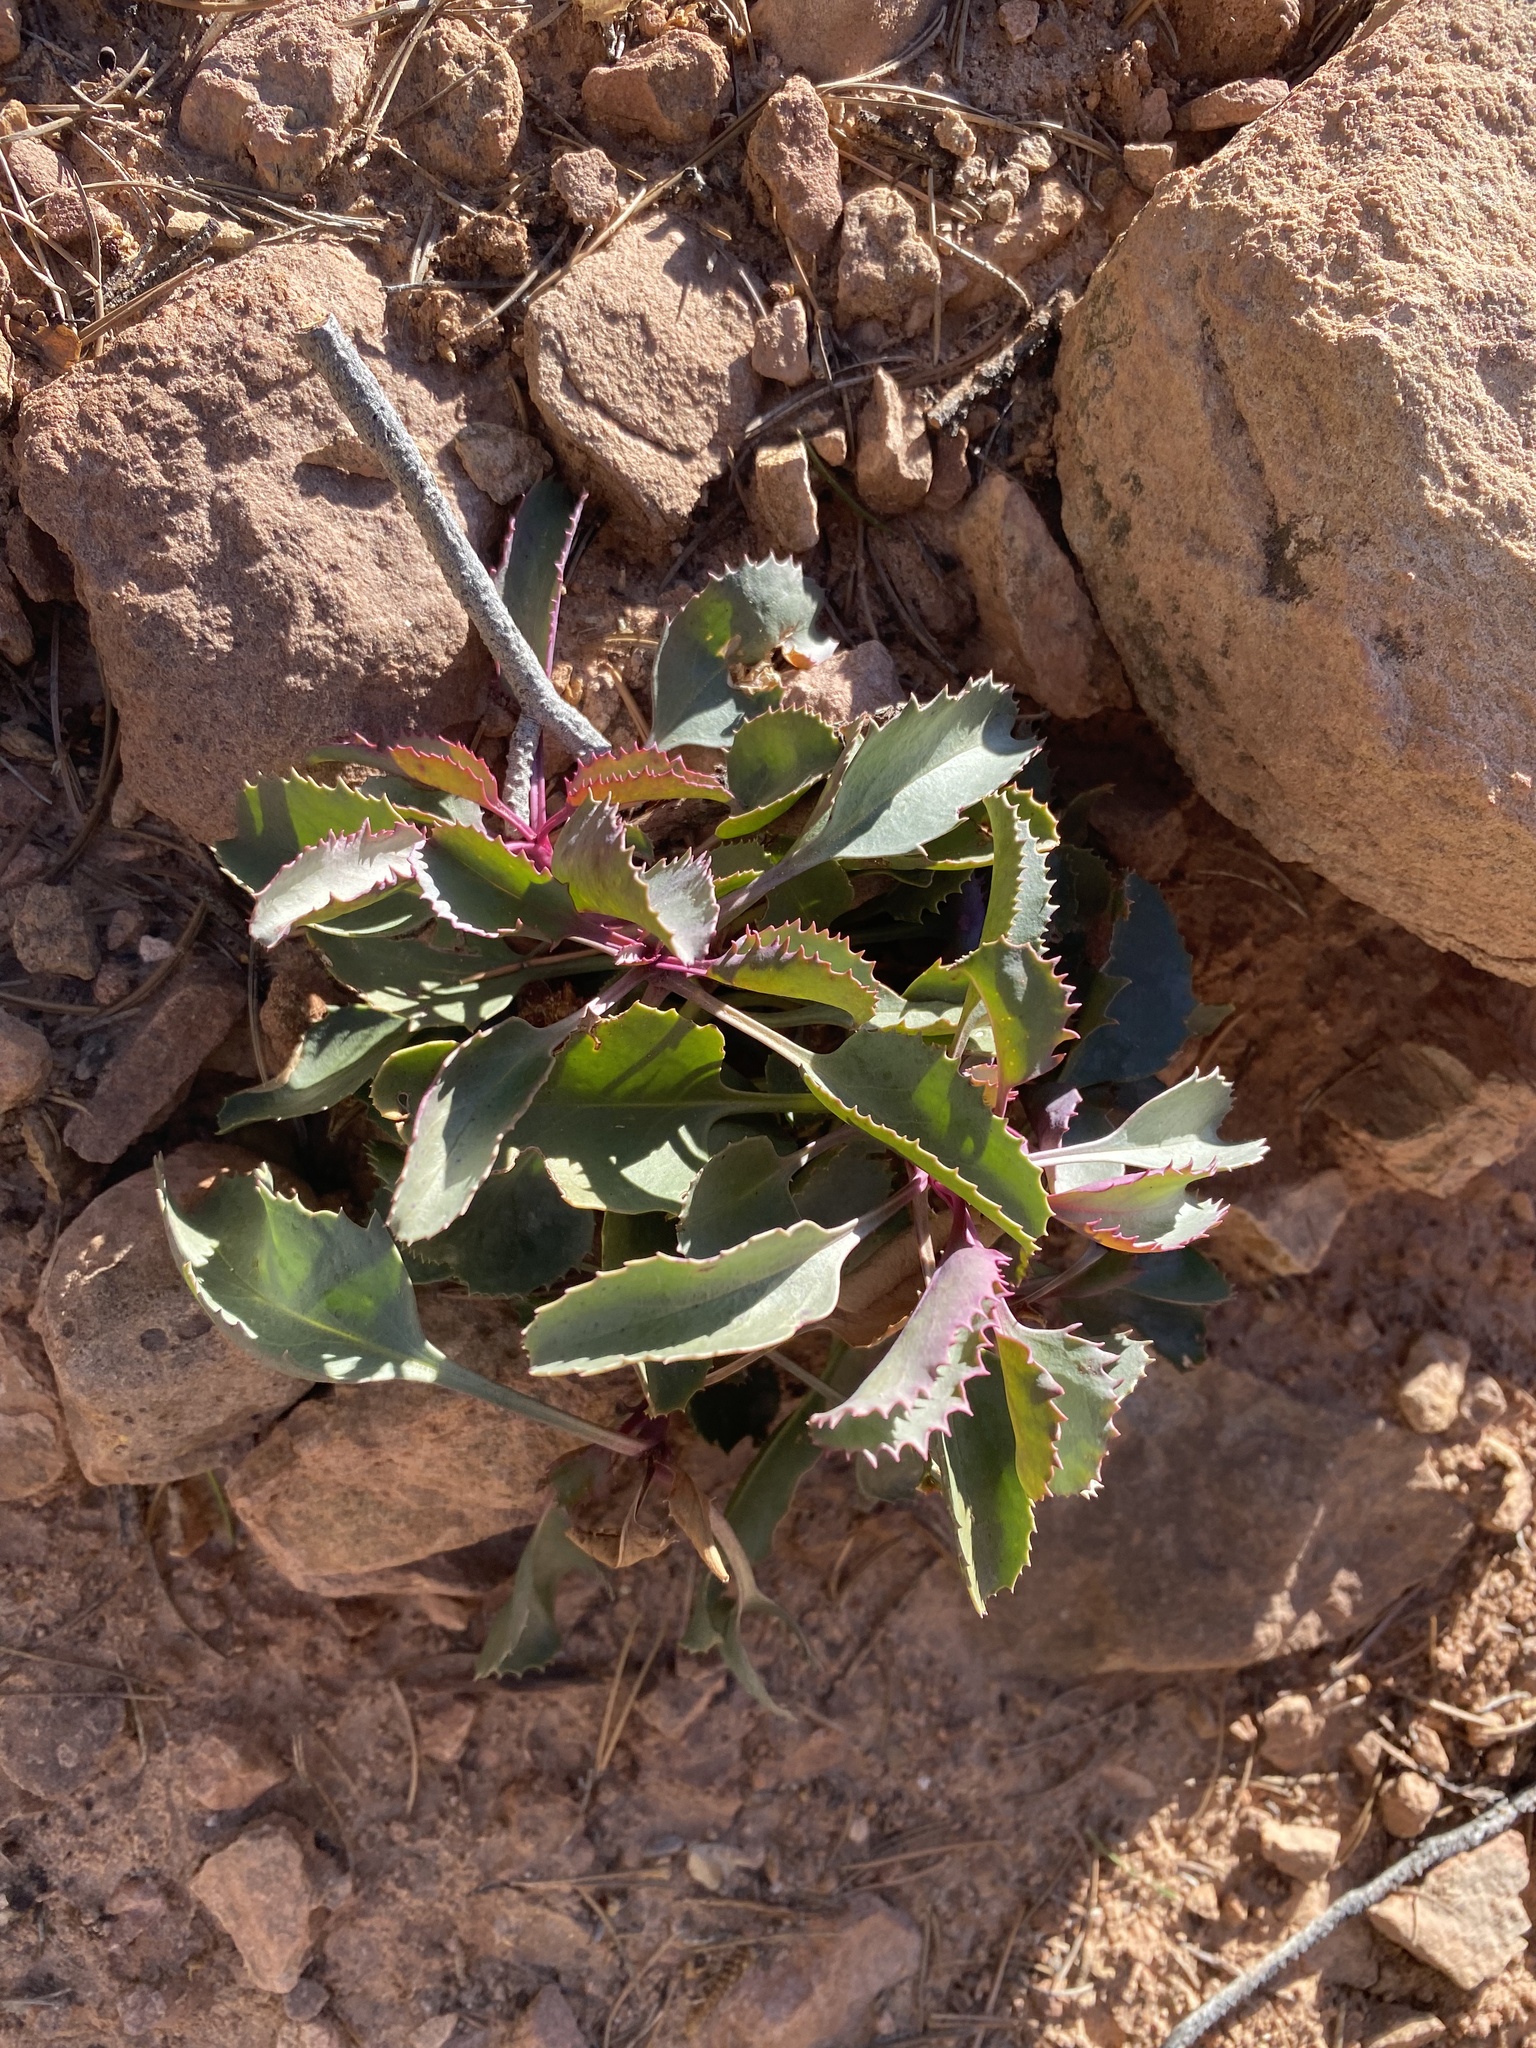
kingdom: Plantae
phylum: Tracheophyta
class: Magnoliopsida
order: Lamiales
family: Plantaginaceae
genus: Penstemon
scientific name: Penstemon palmeri
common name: Palmer penstemon
